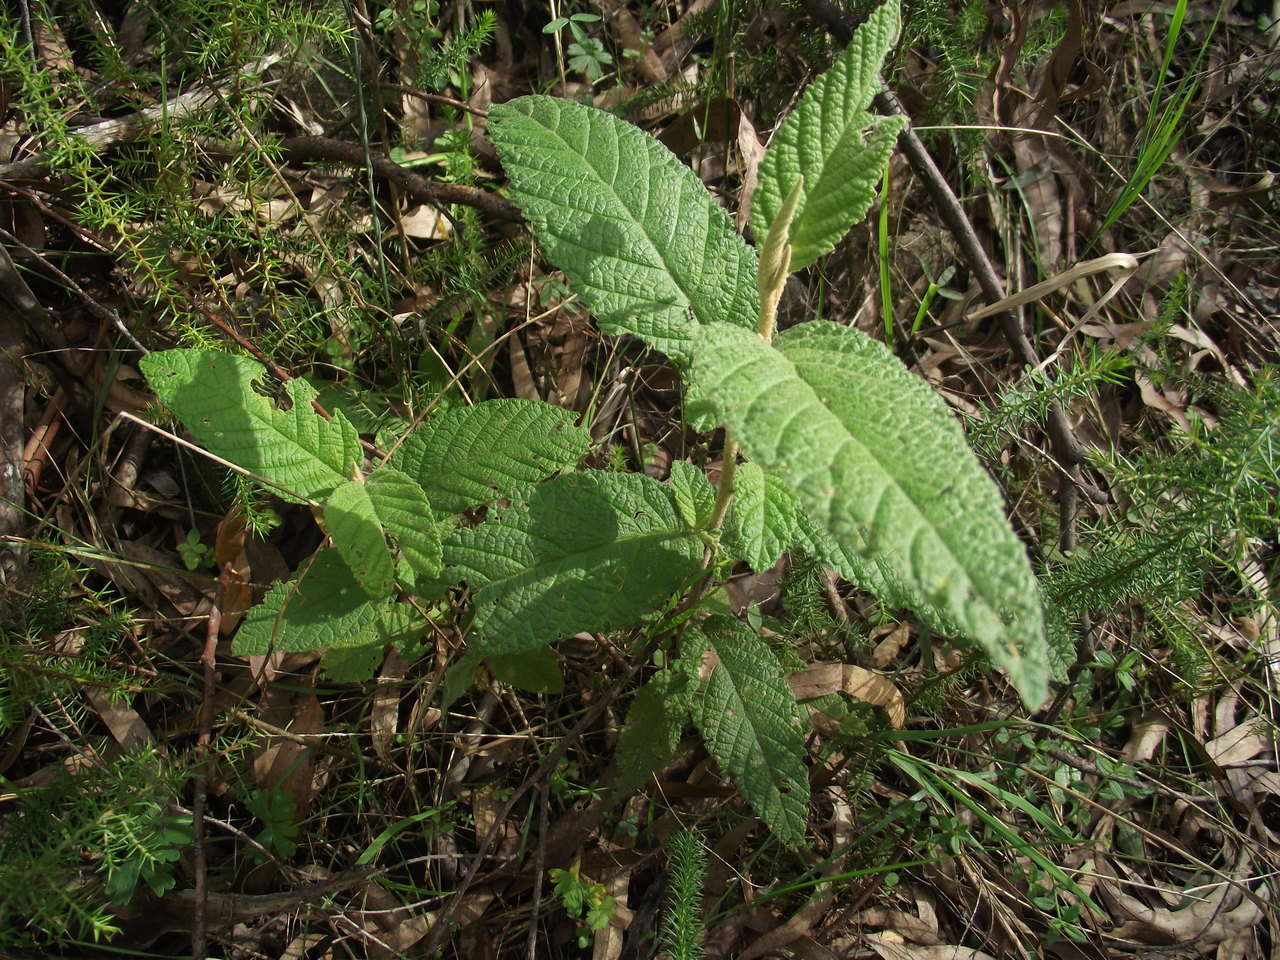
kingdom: Plantae
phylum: Tracheophyta
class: Magnoliopsida
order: Rosales
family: Rhamnaceae
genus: Pomaderris
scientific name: Pomaderris aspera
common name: Hazel pomaderris
